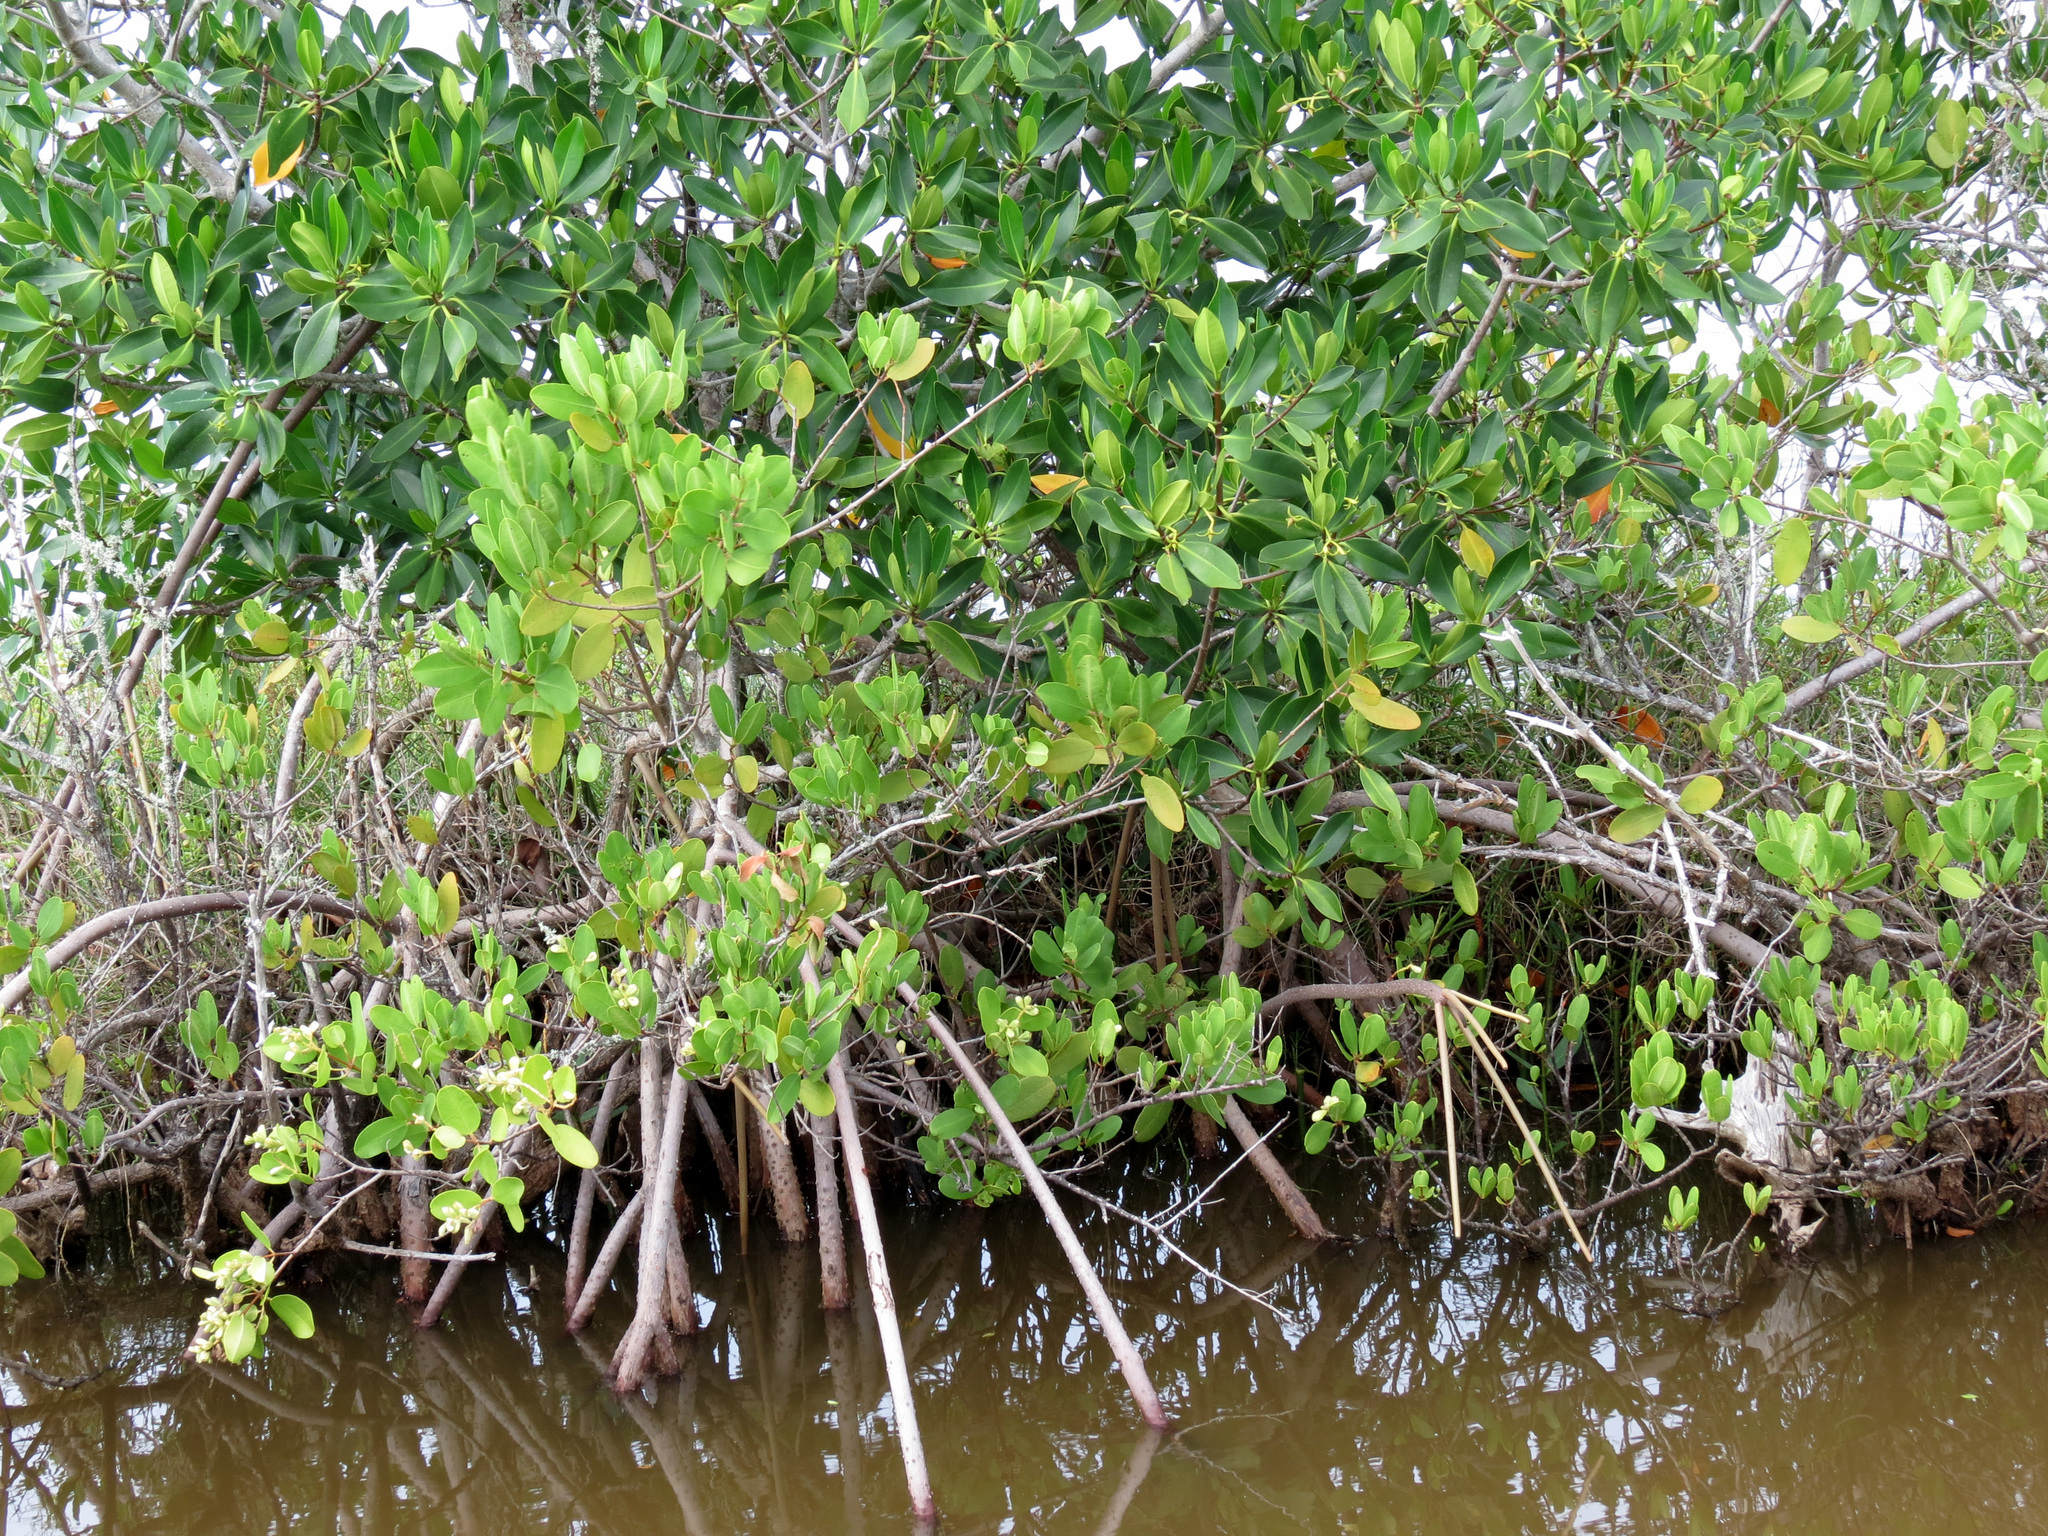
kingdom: Plantae
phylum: Tracheophyta
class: Magnoliopsida
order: Malpighiales
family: Rhizophoraceae
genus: Rhizophora
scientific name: Rhizophora mangle
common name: Red mangrove
